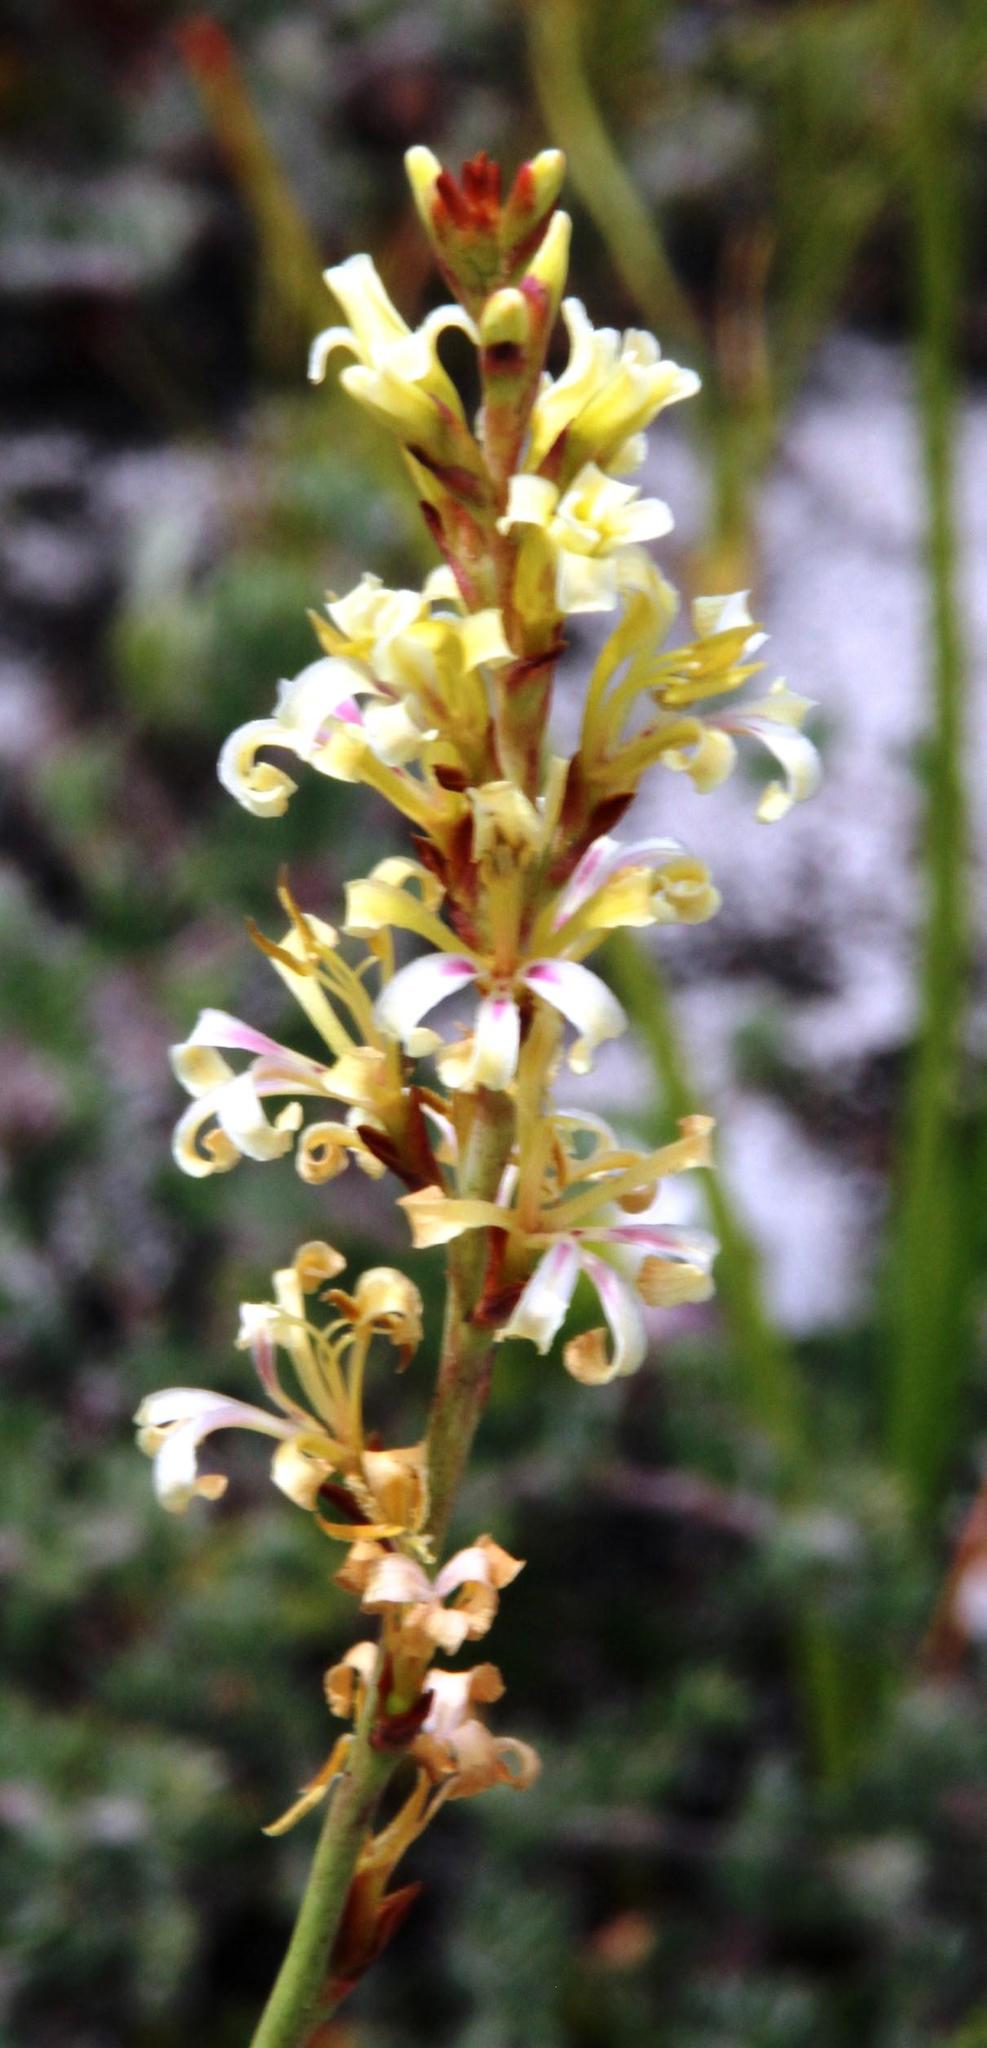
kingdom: Plantae
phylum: Tracheophyta
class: Liliopsida
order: Asparagales
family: Iridaceae
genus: Tritoniopsis
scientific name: Tritoniopsis unguicularis
